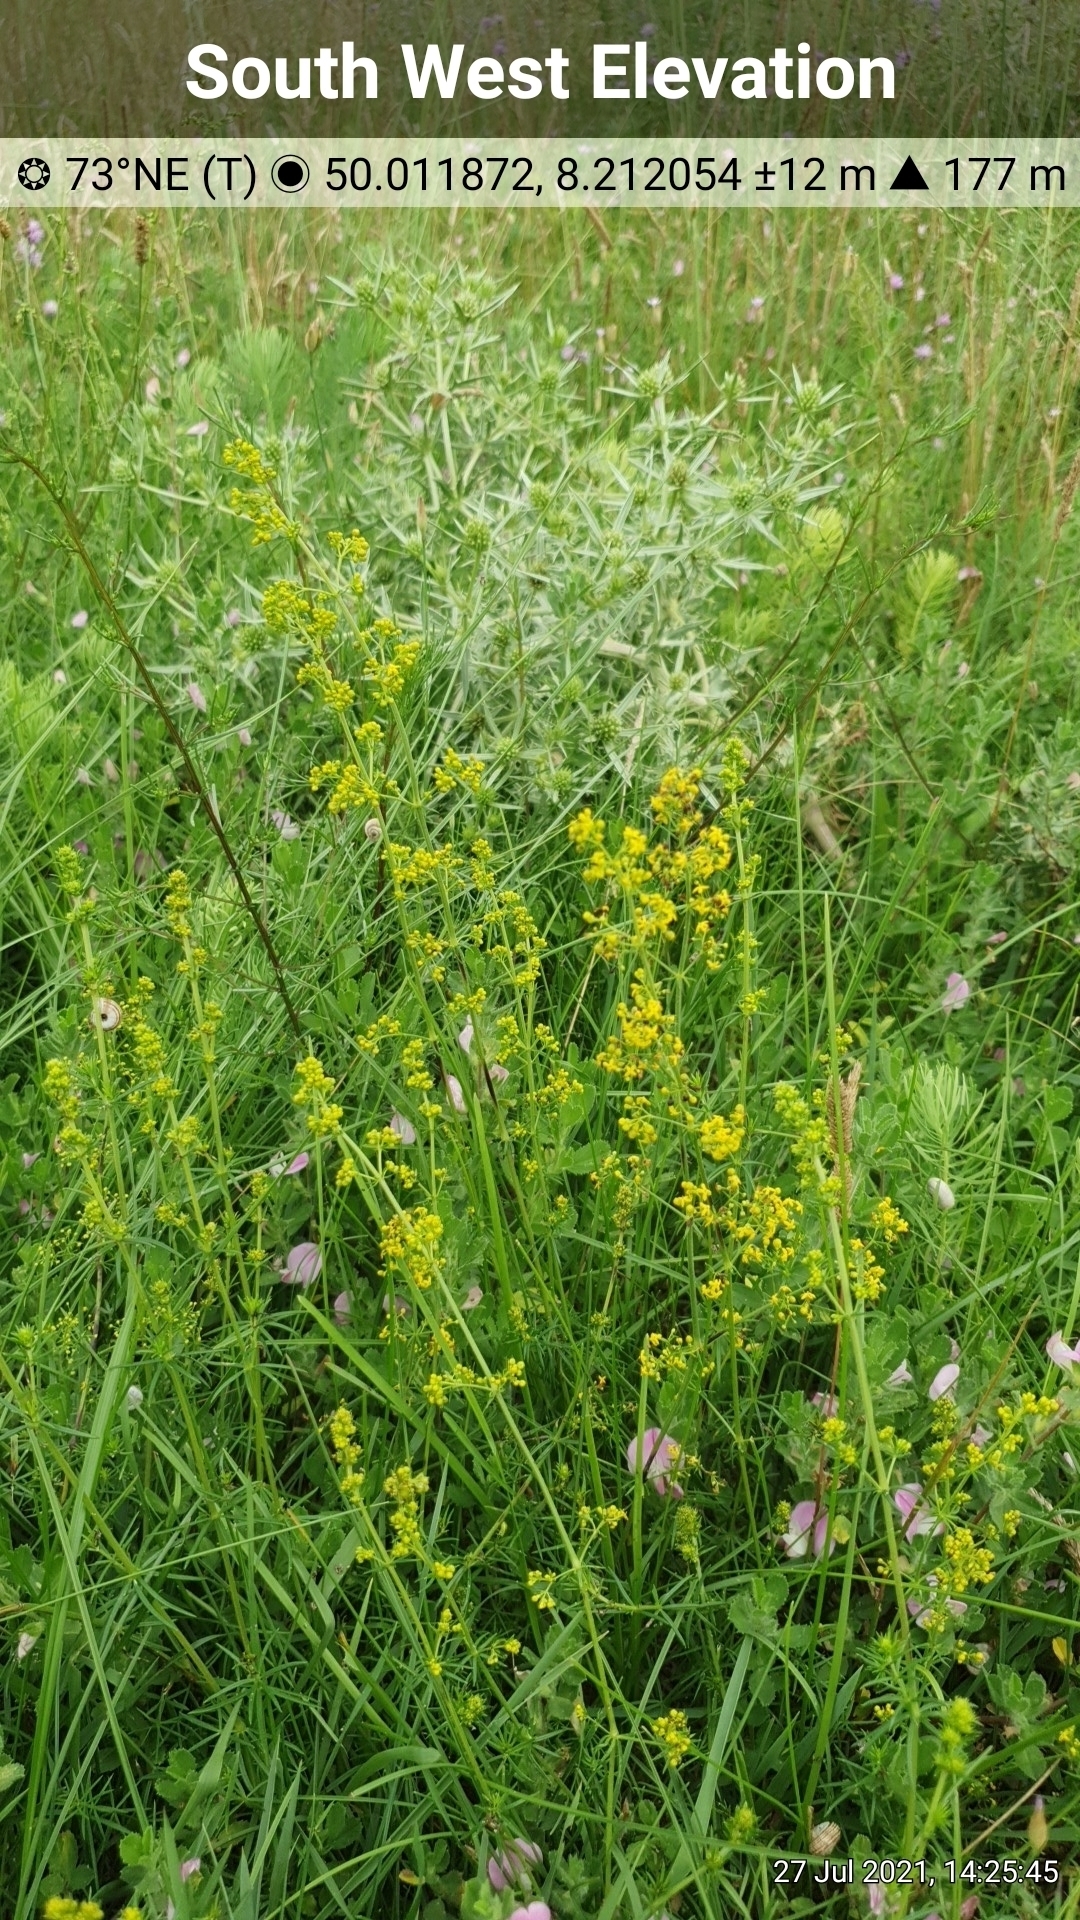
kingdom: Plantae
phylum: Tracheophyta
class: Magnoliopsida
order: Gentianales
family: Rubiaceae
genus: Galium
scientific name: Galium verum
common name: Lady's bedstraw
